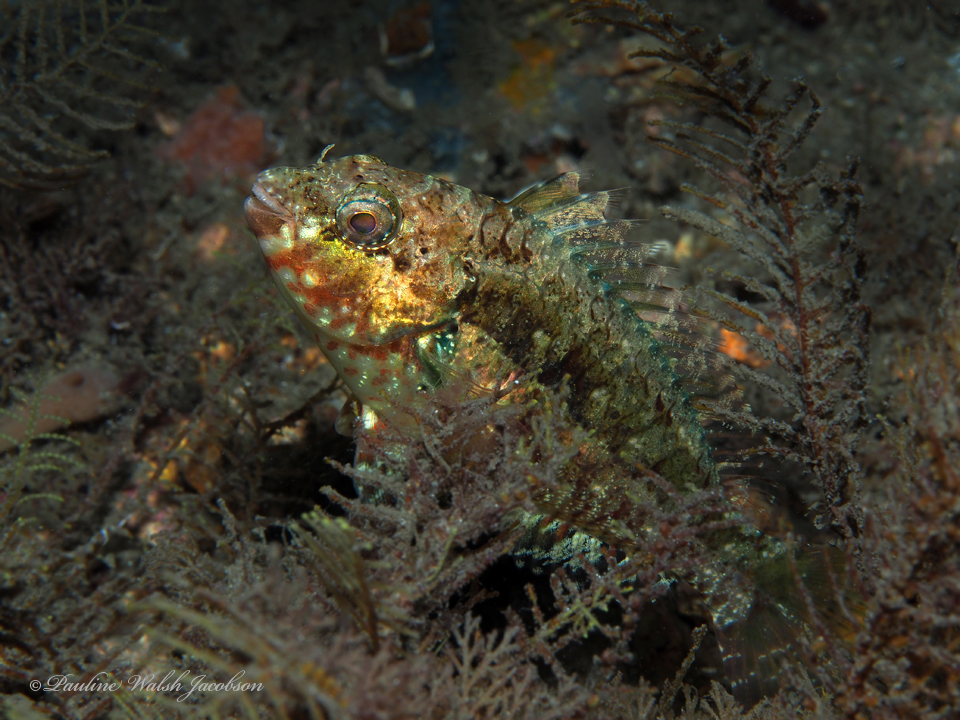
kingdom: Animalia
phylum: Chordata
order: Perciformes
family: Scaridae
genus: Sparisoma
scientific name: Sparisoma radians
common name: Bucktooth parrotfish
